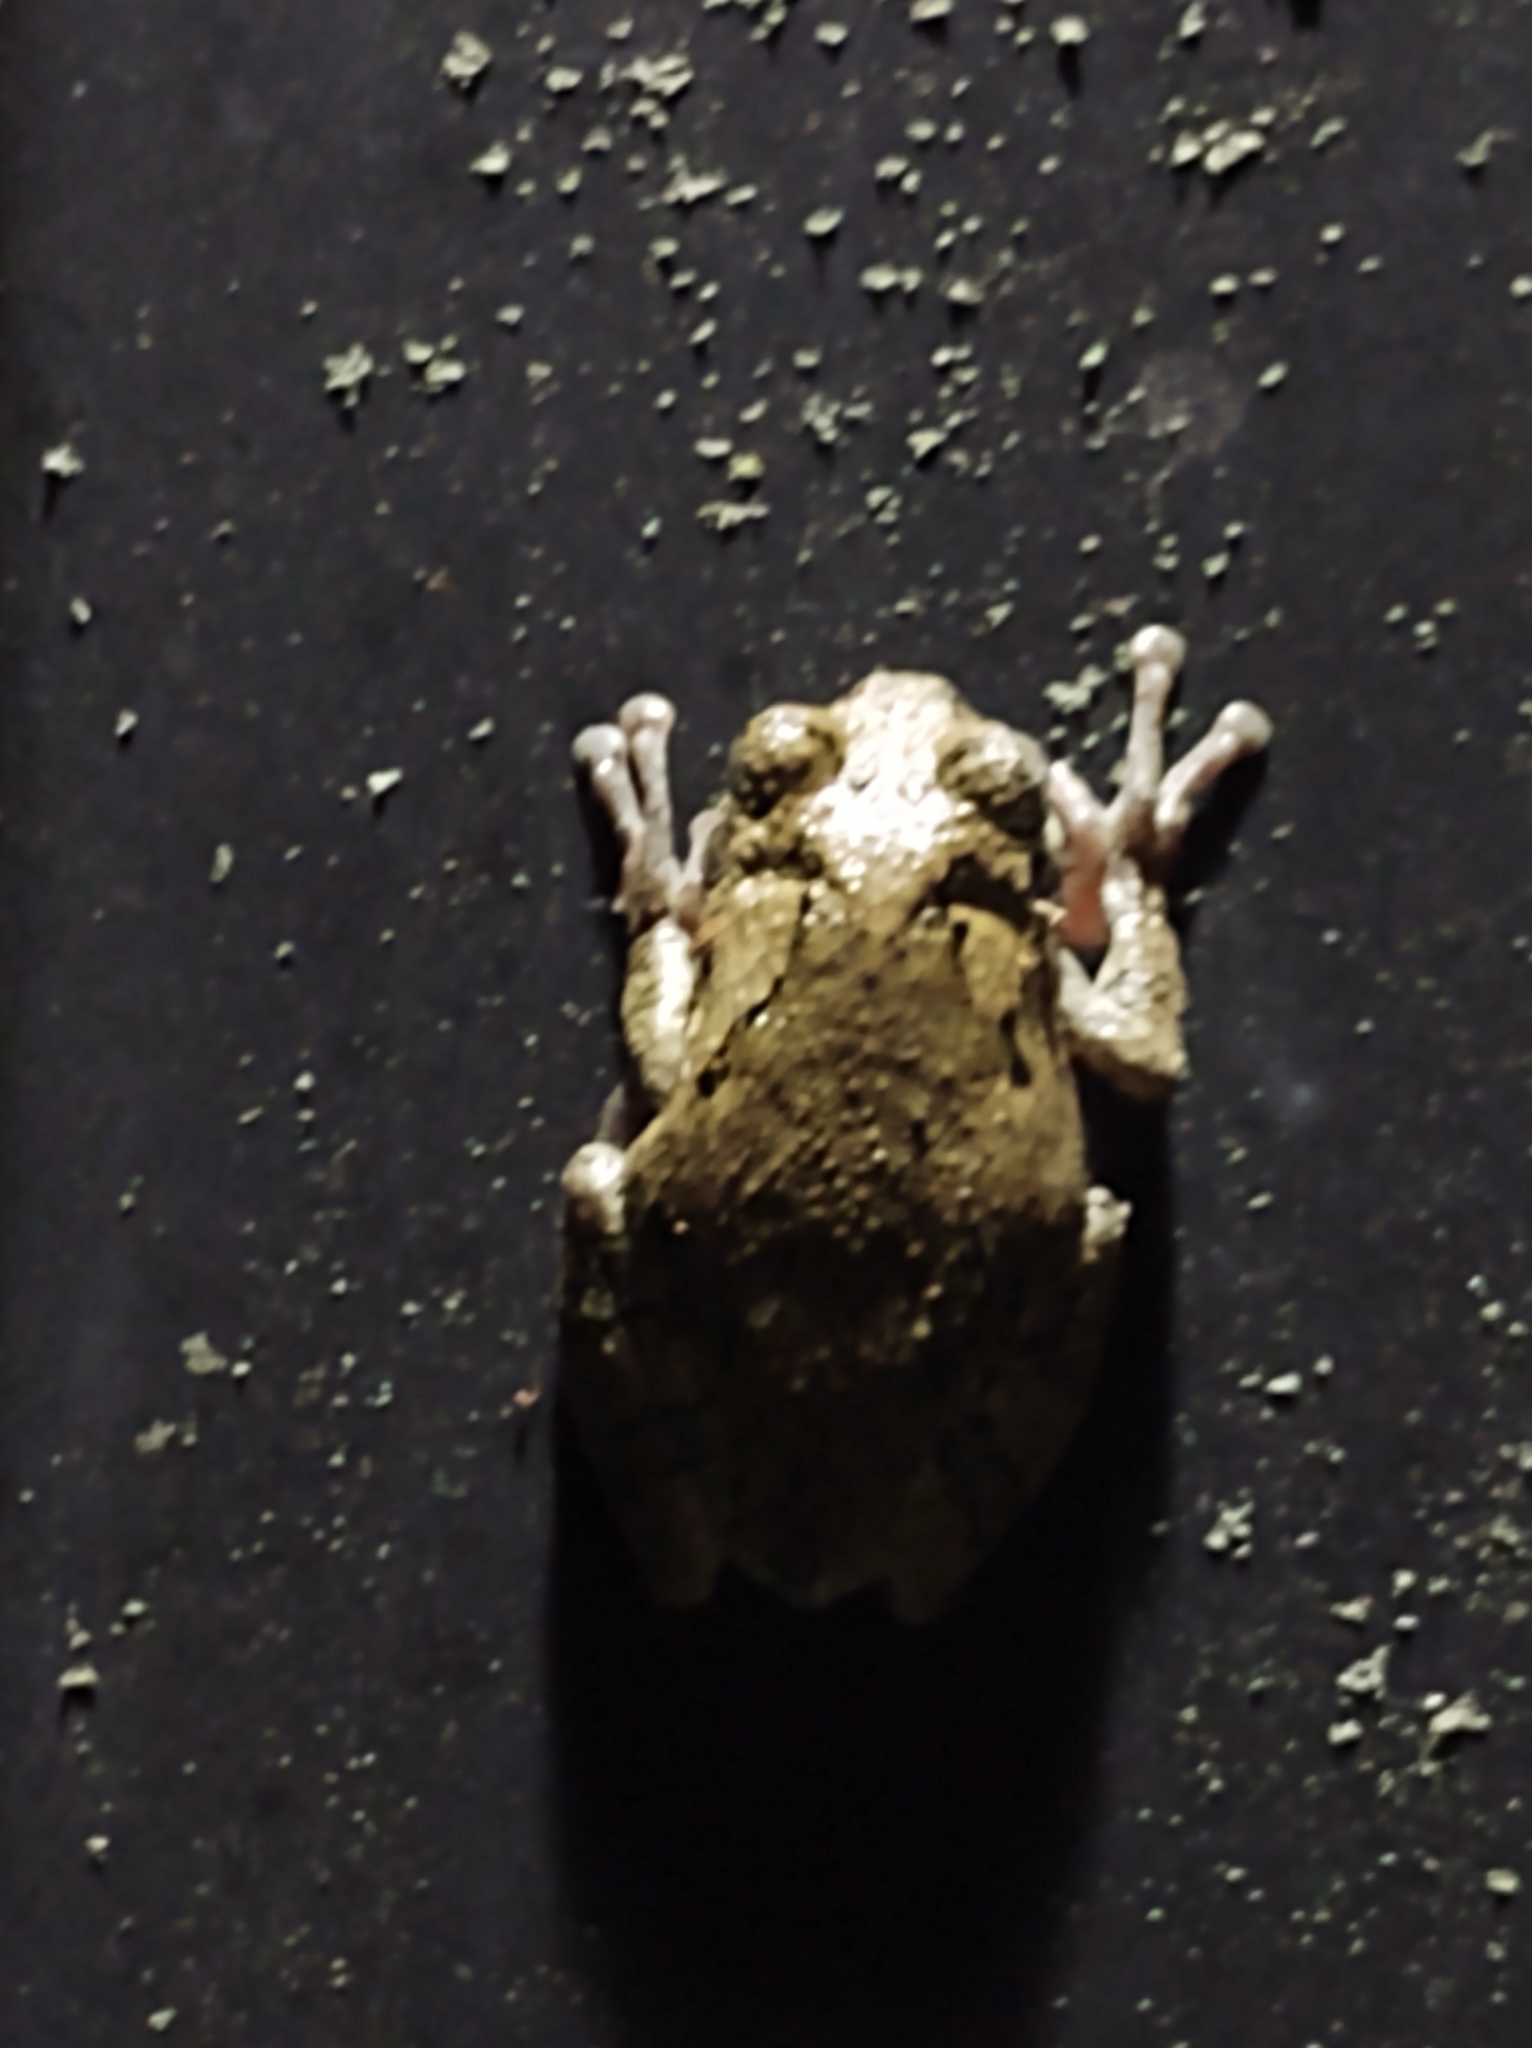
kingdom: Animalia
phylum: Chordata
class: Amphibia
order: Anura
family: Hylidae
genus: Dryophytes
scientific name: Dryophytes chrysoscelis
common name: Cope's gray treefrog
